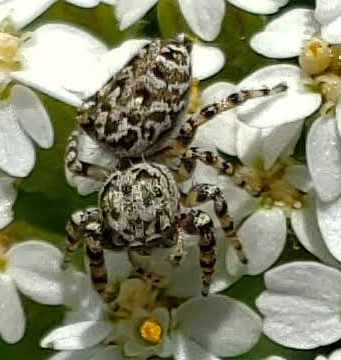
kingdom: Animalia
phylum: Arthropoda
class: Arachnida
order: Araneae
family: Salticidae
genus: Pelegrina
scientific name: Pelegrina galathea
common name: Jumping spiders
